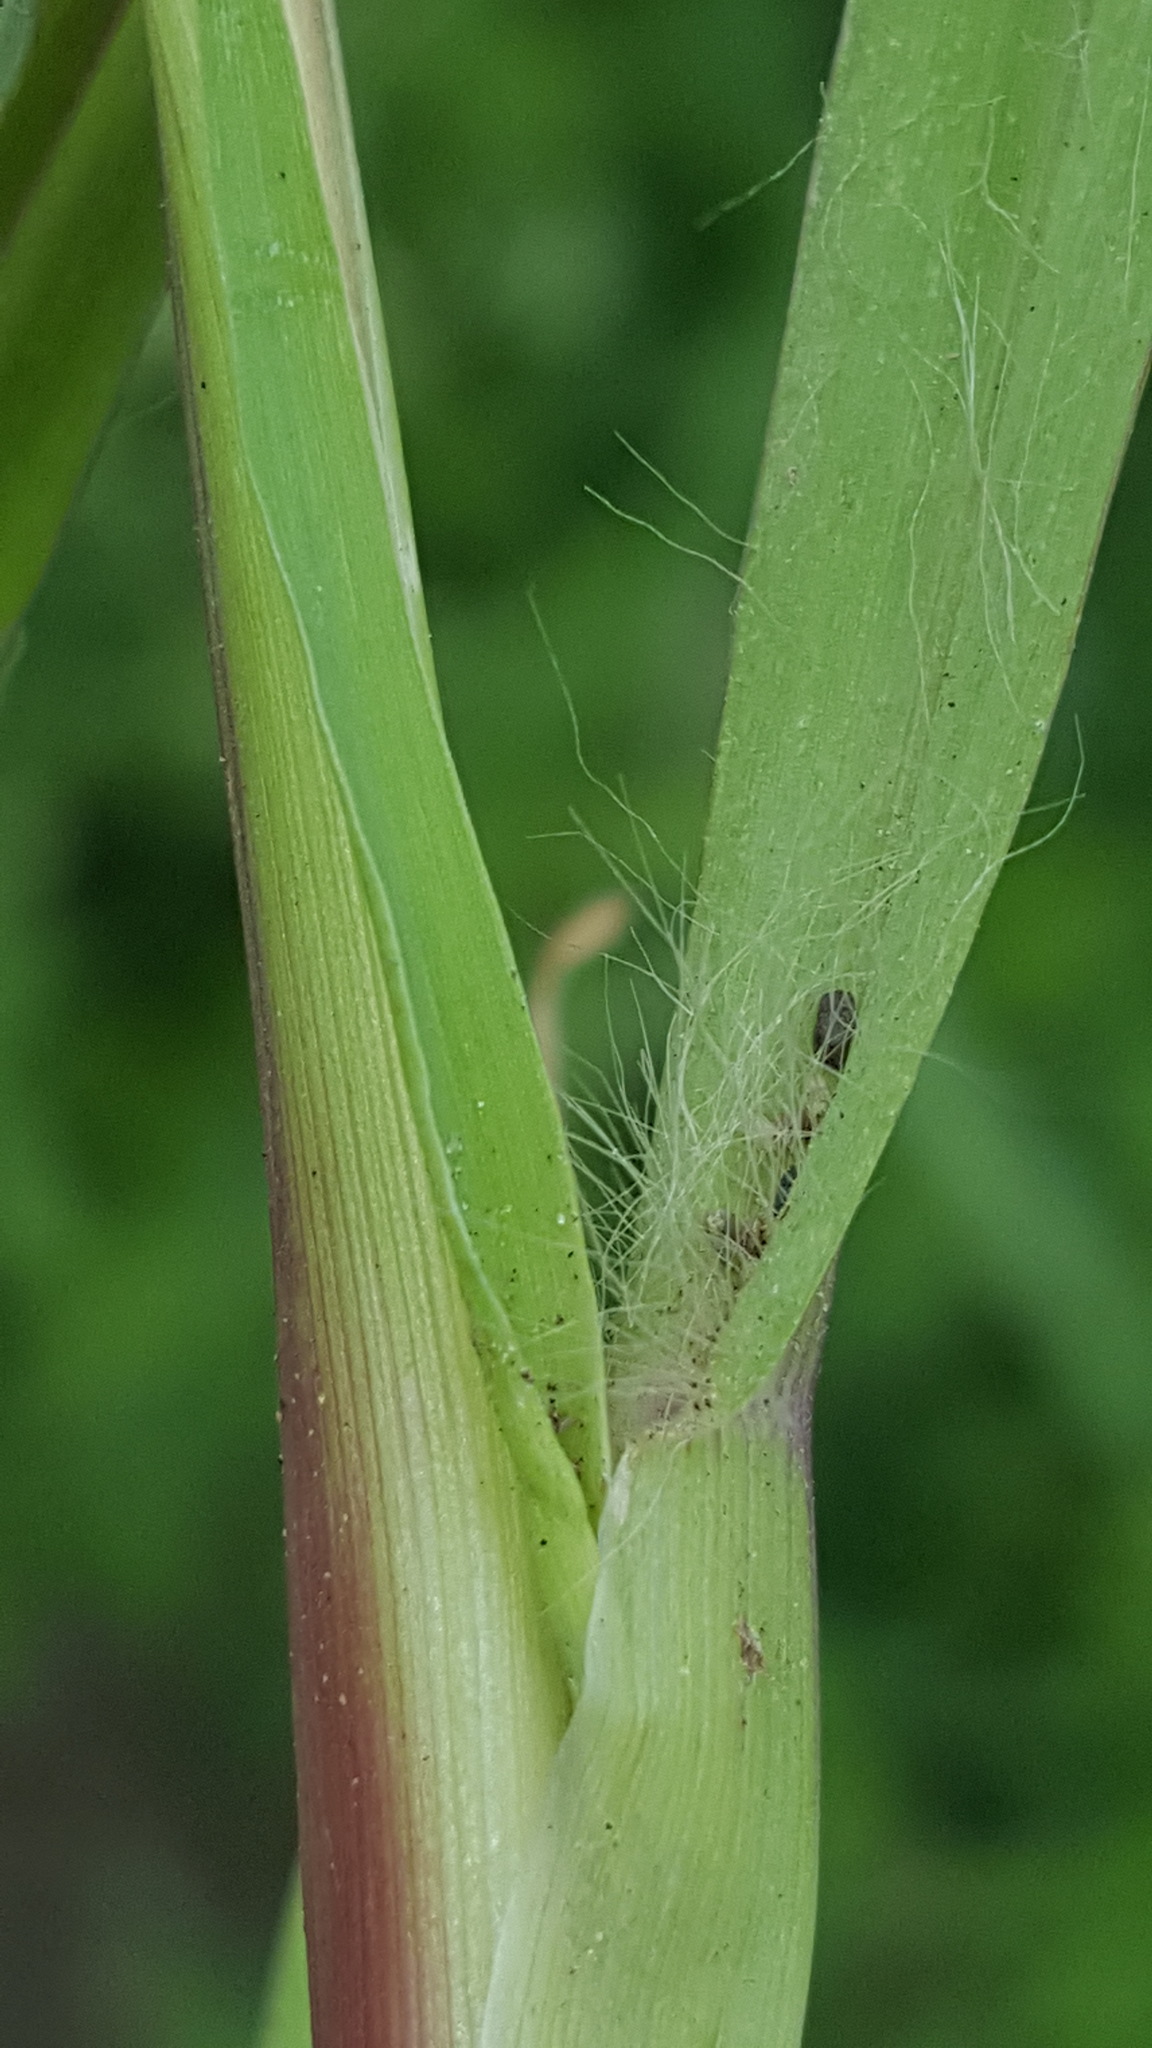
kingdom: Plantae
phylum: Tracheophyta
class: Liliopsida
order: Poales
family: Poaceae
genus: Setaria
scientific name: Setaria pumila
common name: Yellow bristle-grass
